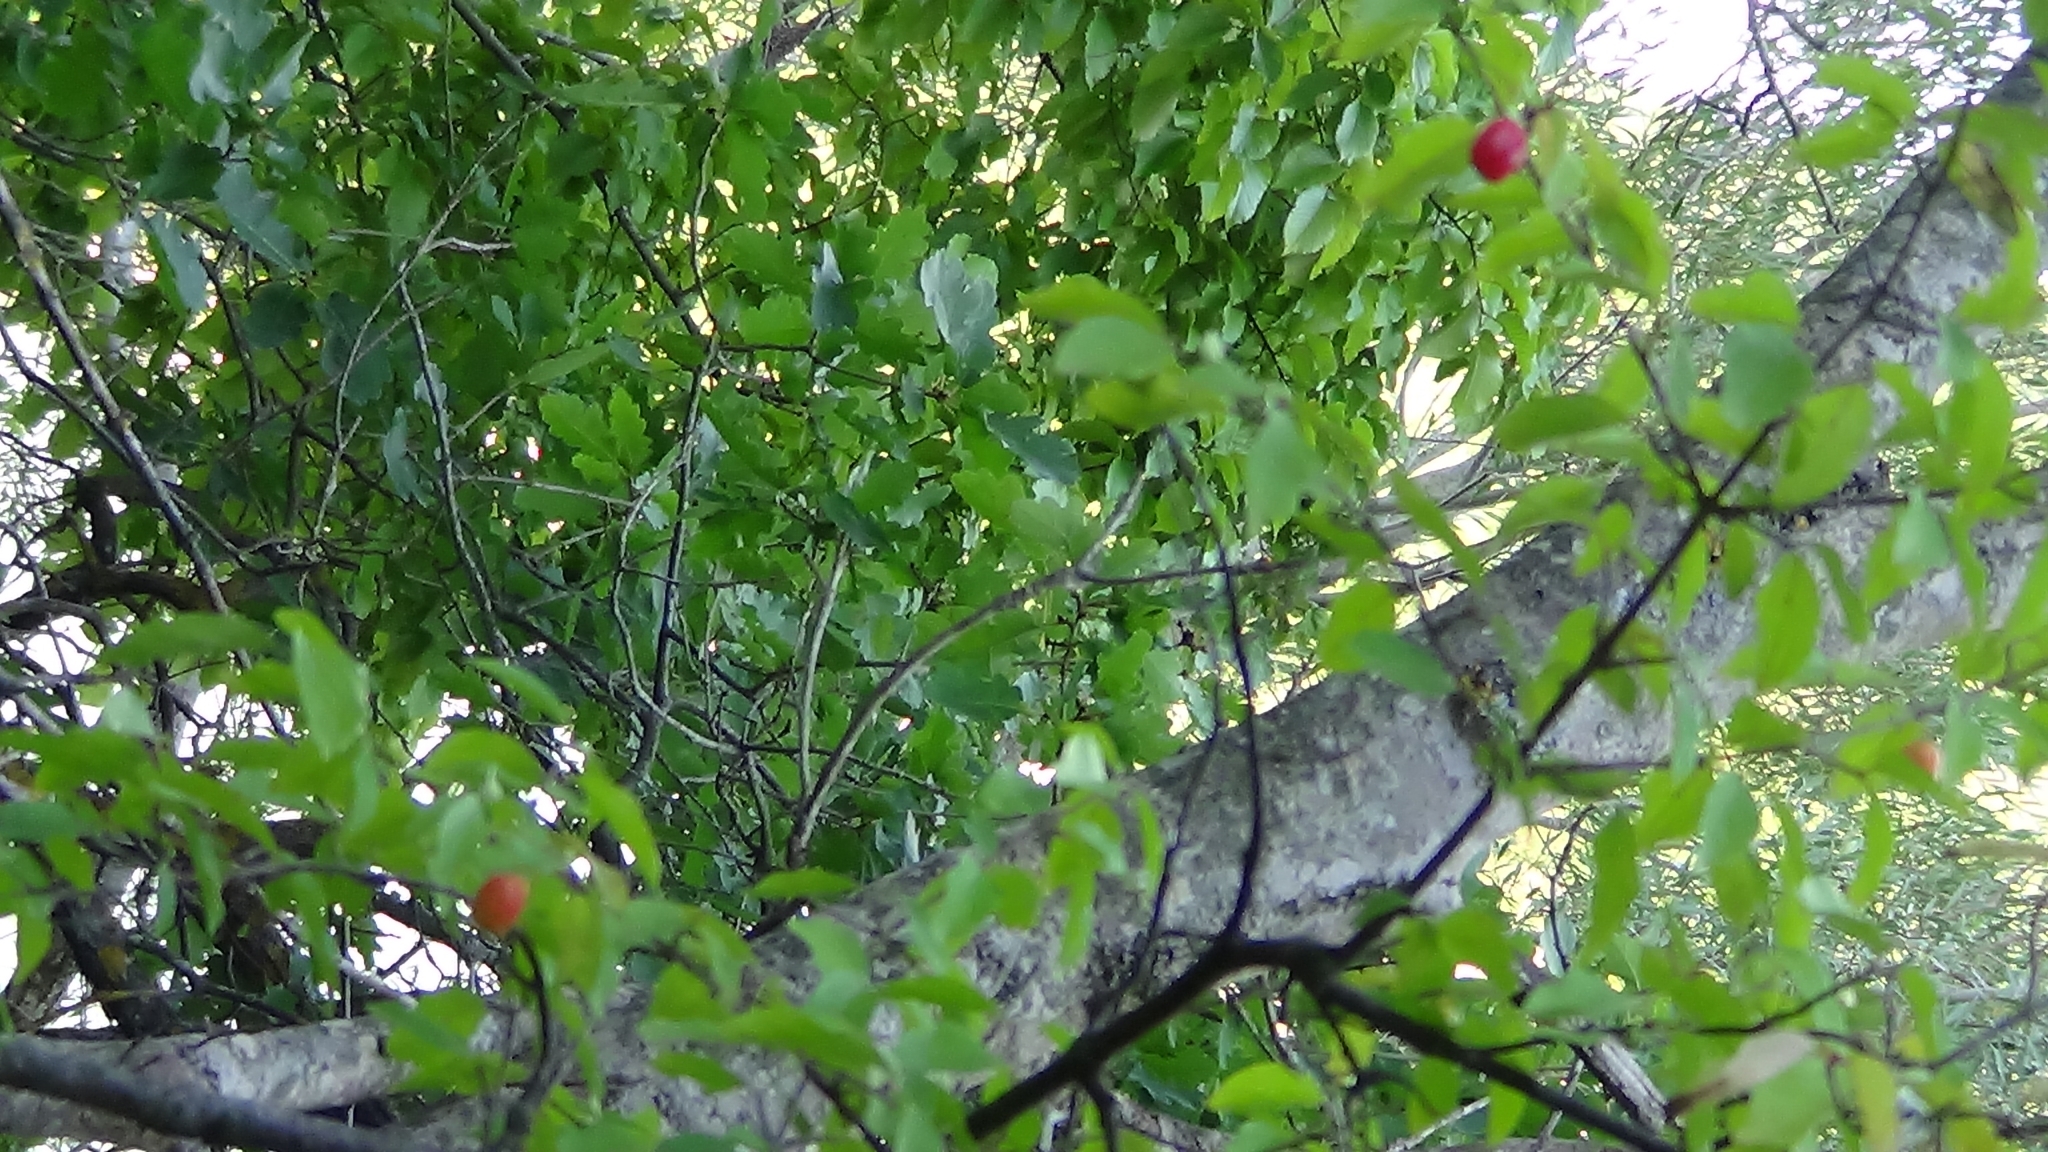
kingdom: Plantae
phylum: Tracheophyta
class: Magnoliopsida
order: Cornales
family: Cornaceae
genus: Cornus
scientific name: Cornus mas
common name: Cornelian-cherry
